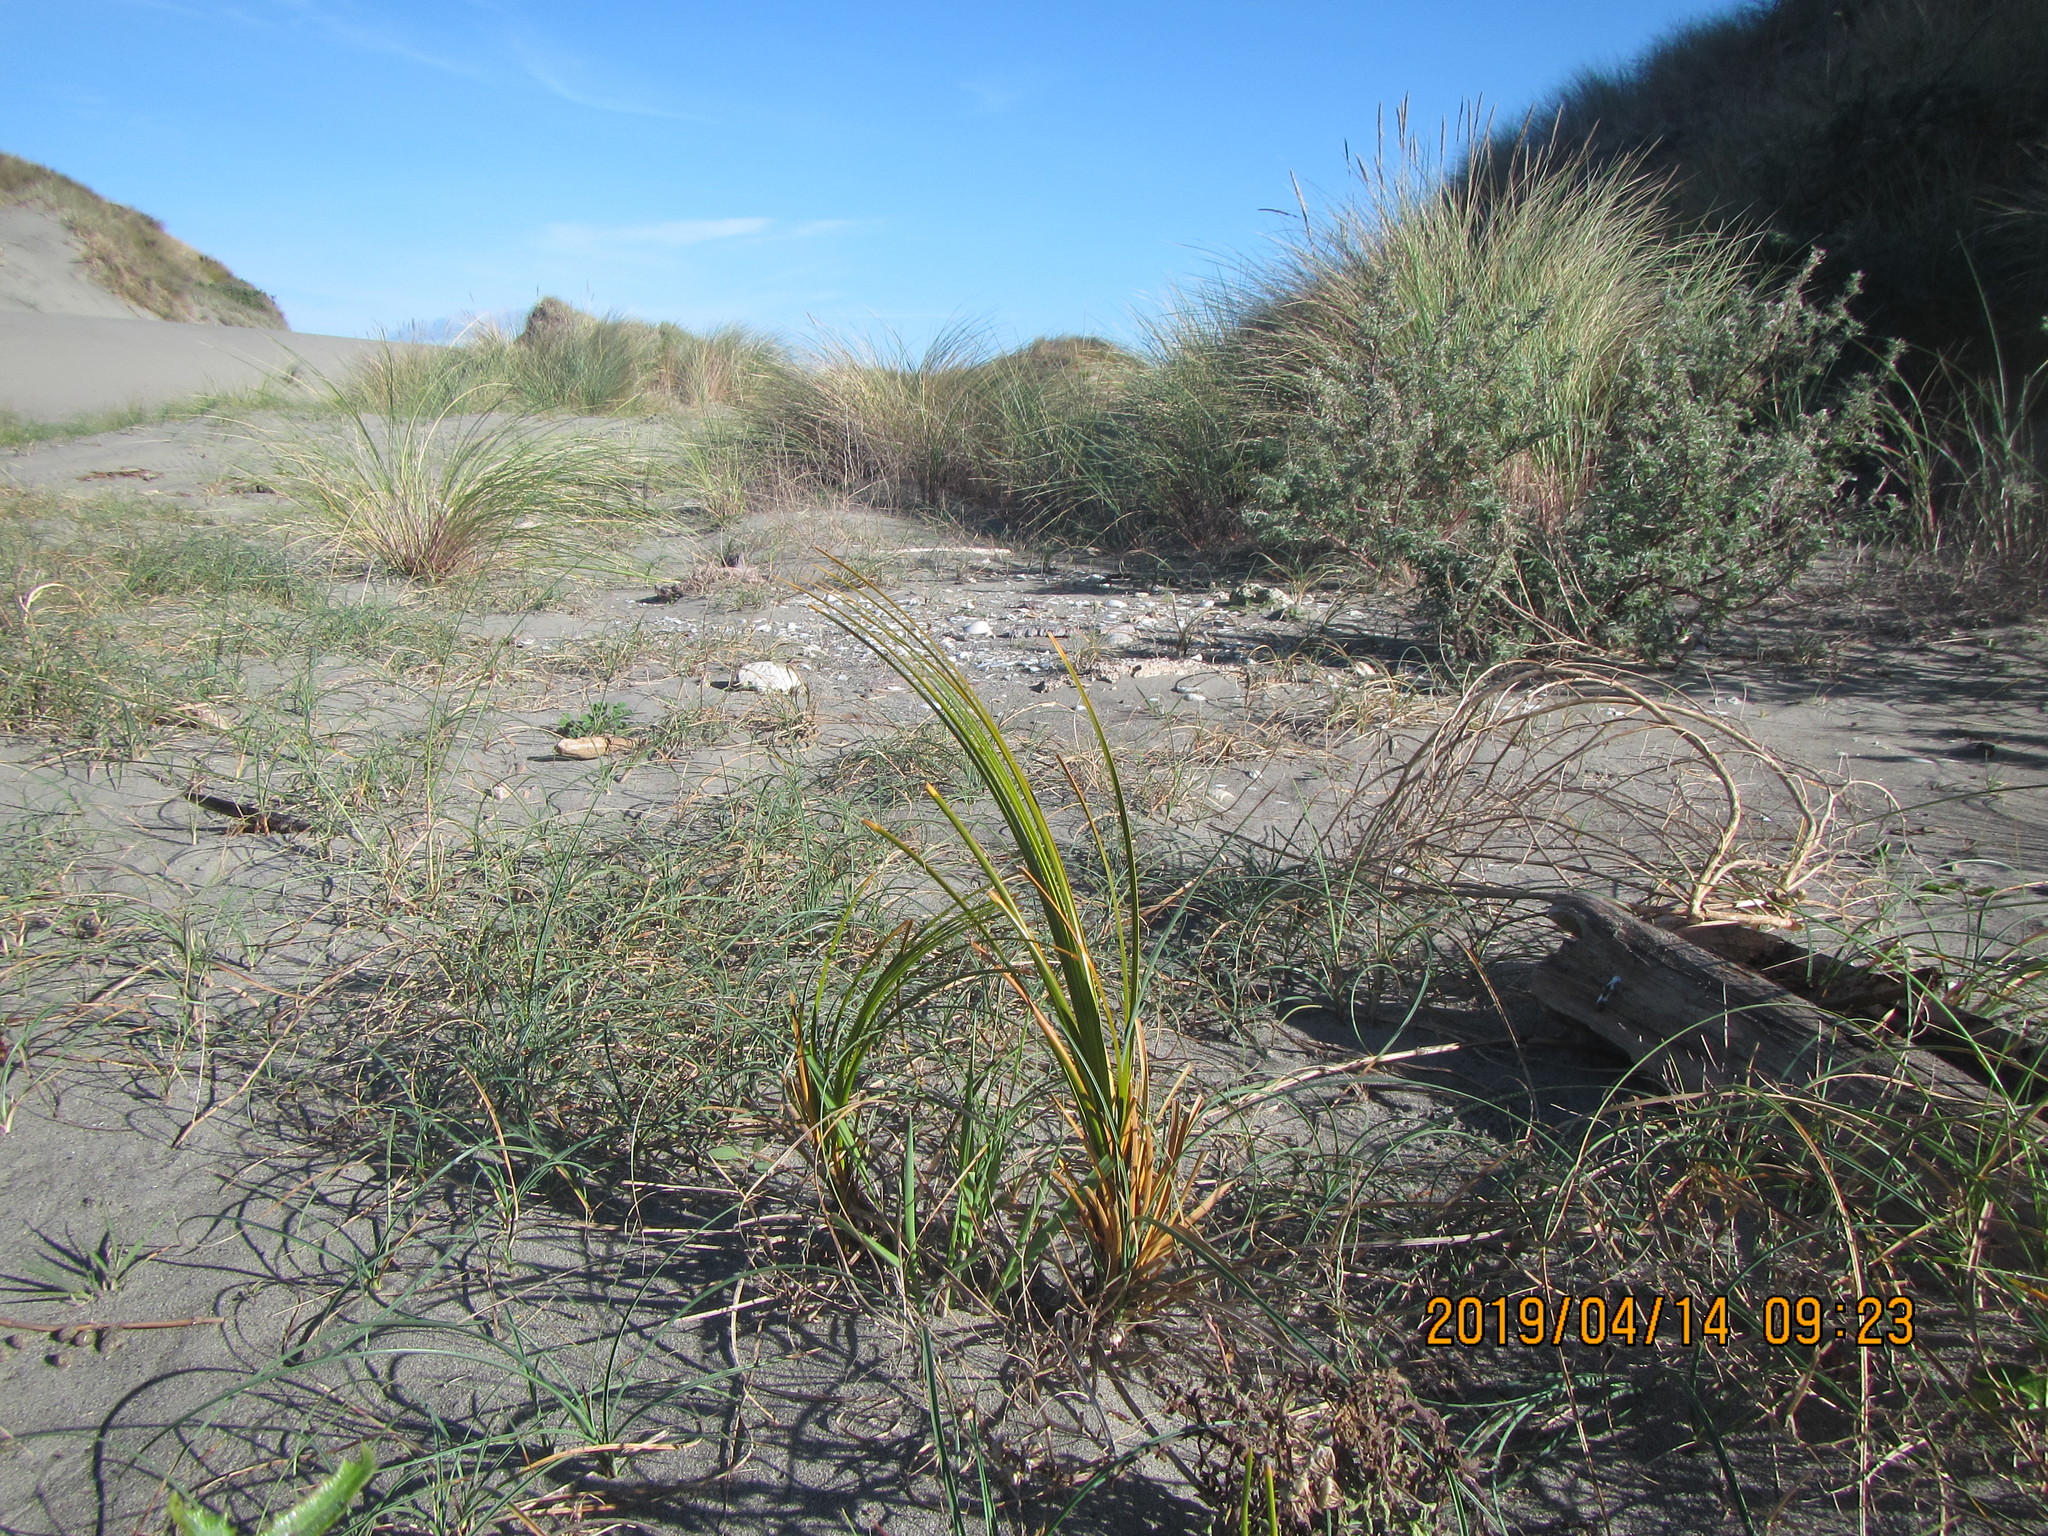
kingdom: Plantae
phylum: Tracheophyta
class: Liliopsida
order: Poales
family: Cyperaceae
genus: Ficinia
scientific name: Ficinia spiralis
